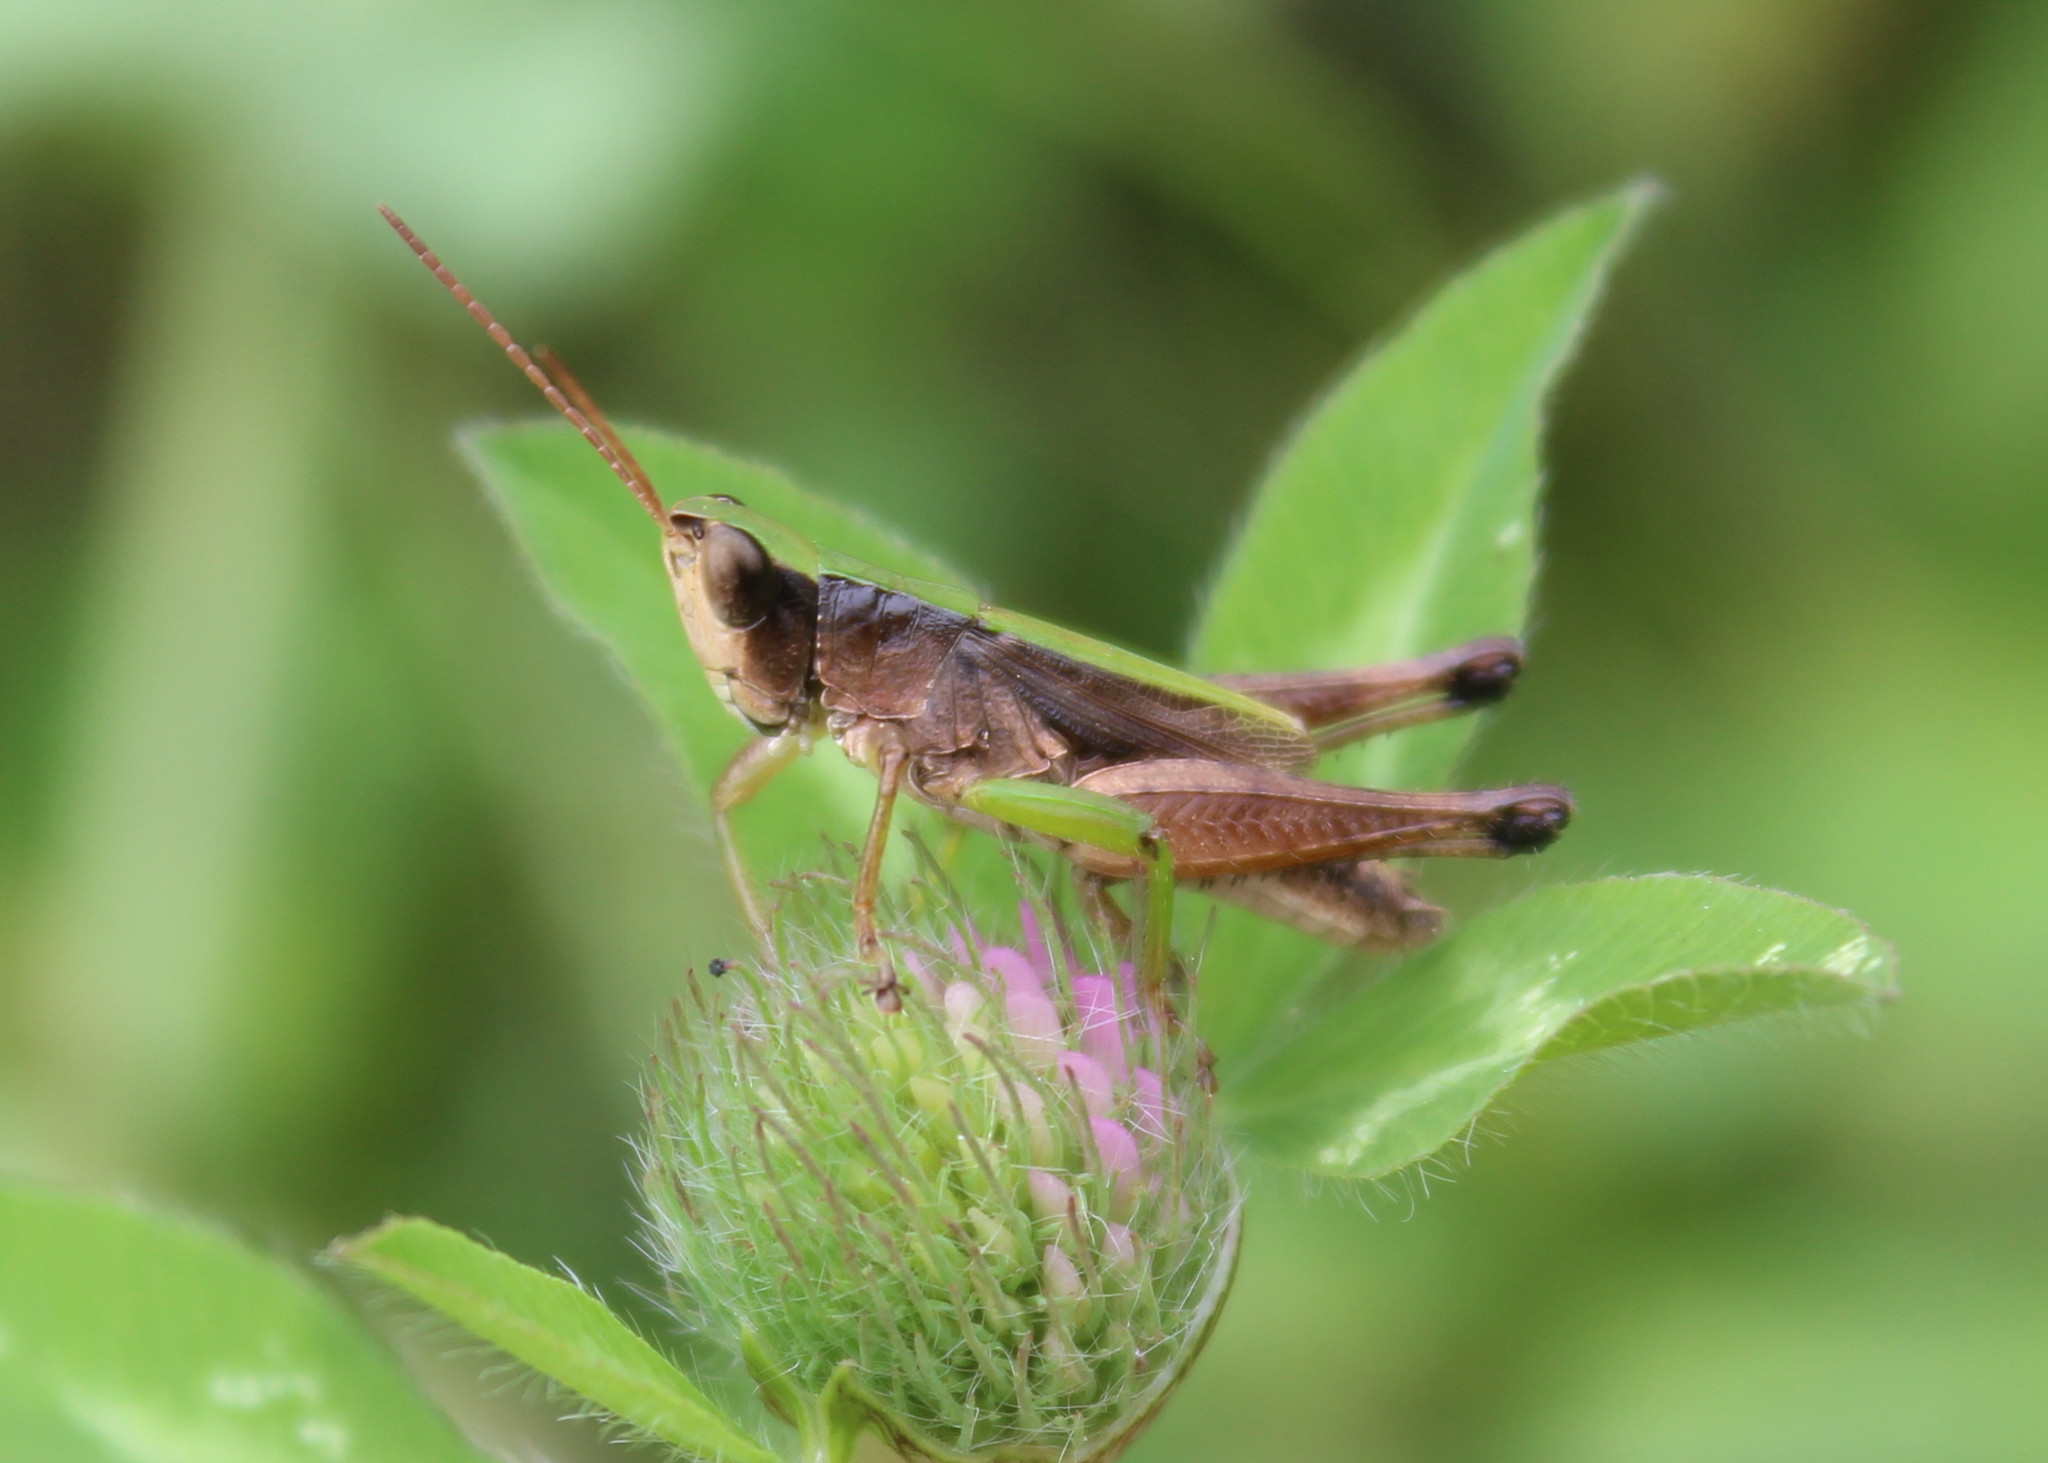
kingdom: Animalia
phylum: Arthropoda
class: Insecta
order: Orthoptera
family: Acrididae
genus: Dichromorpha
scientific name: Dichromorpha viridis
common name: Short-winged green grasshopper
